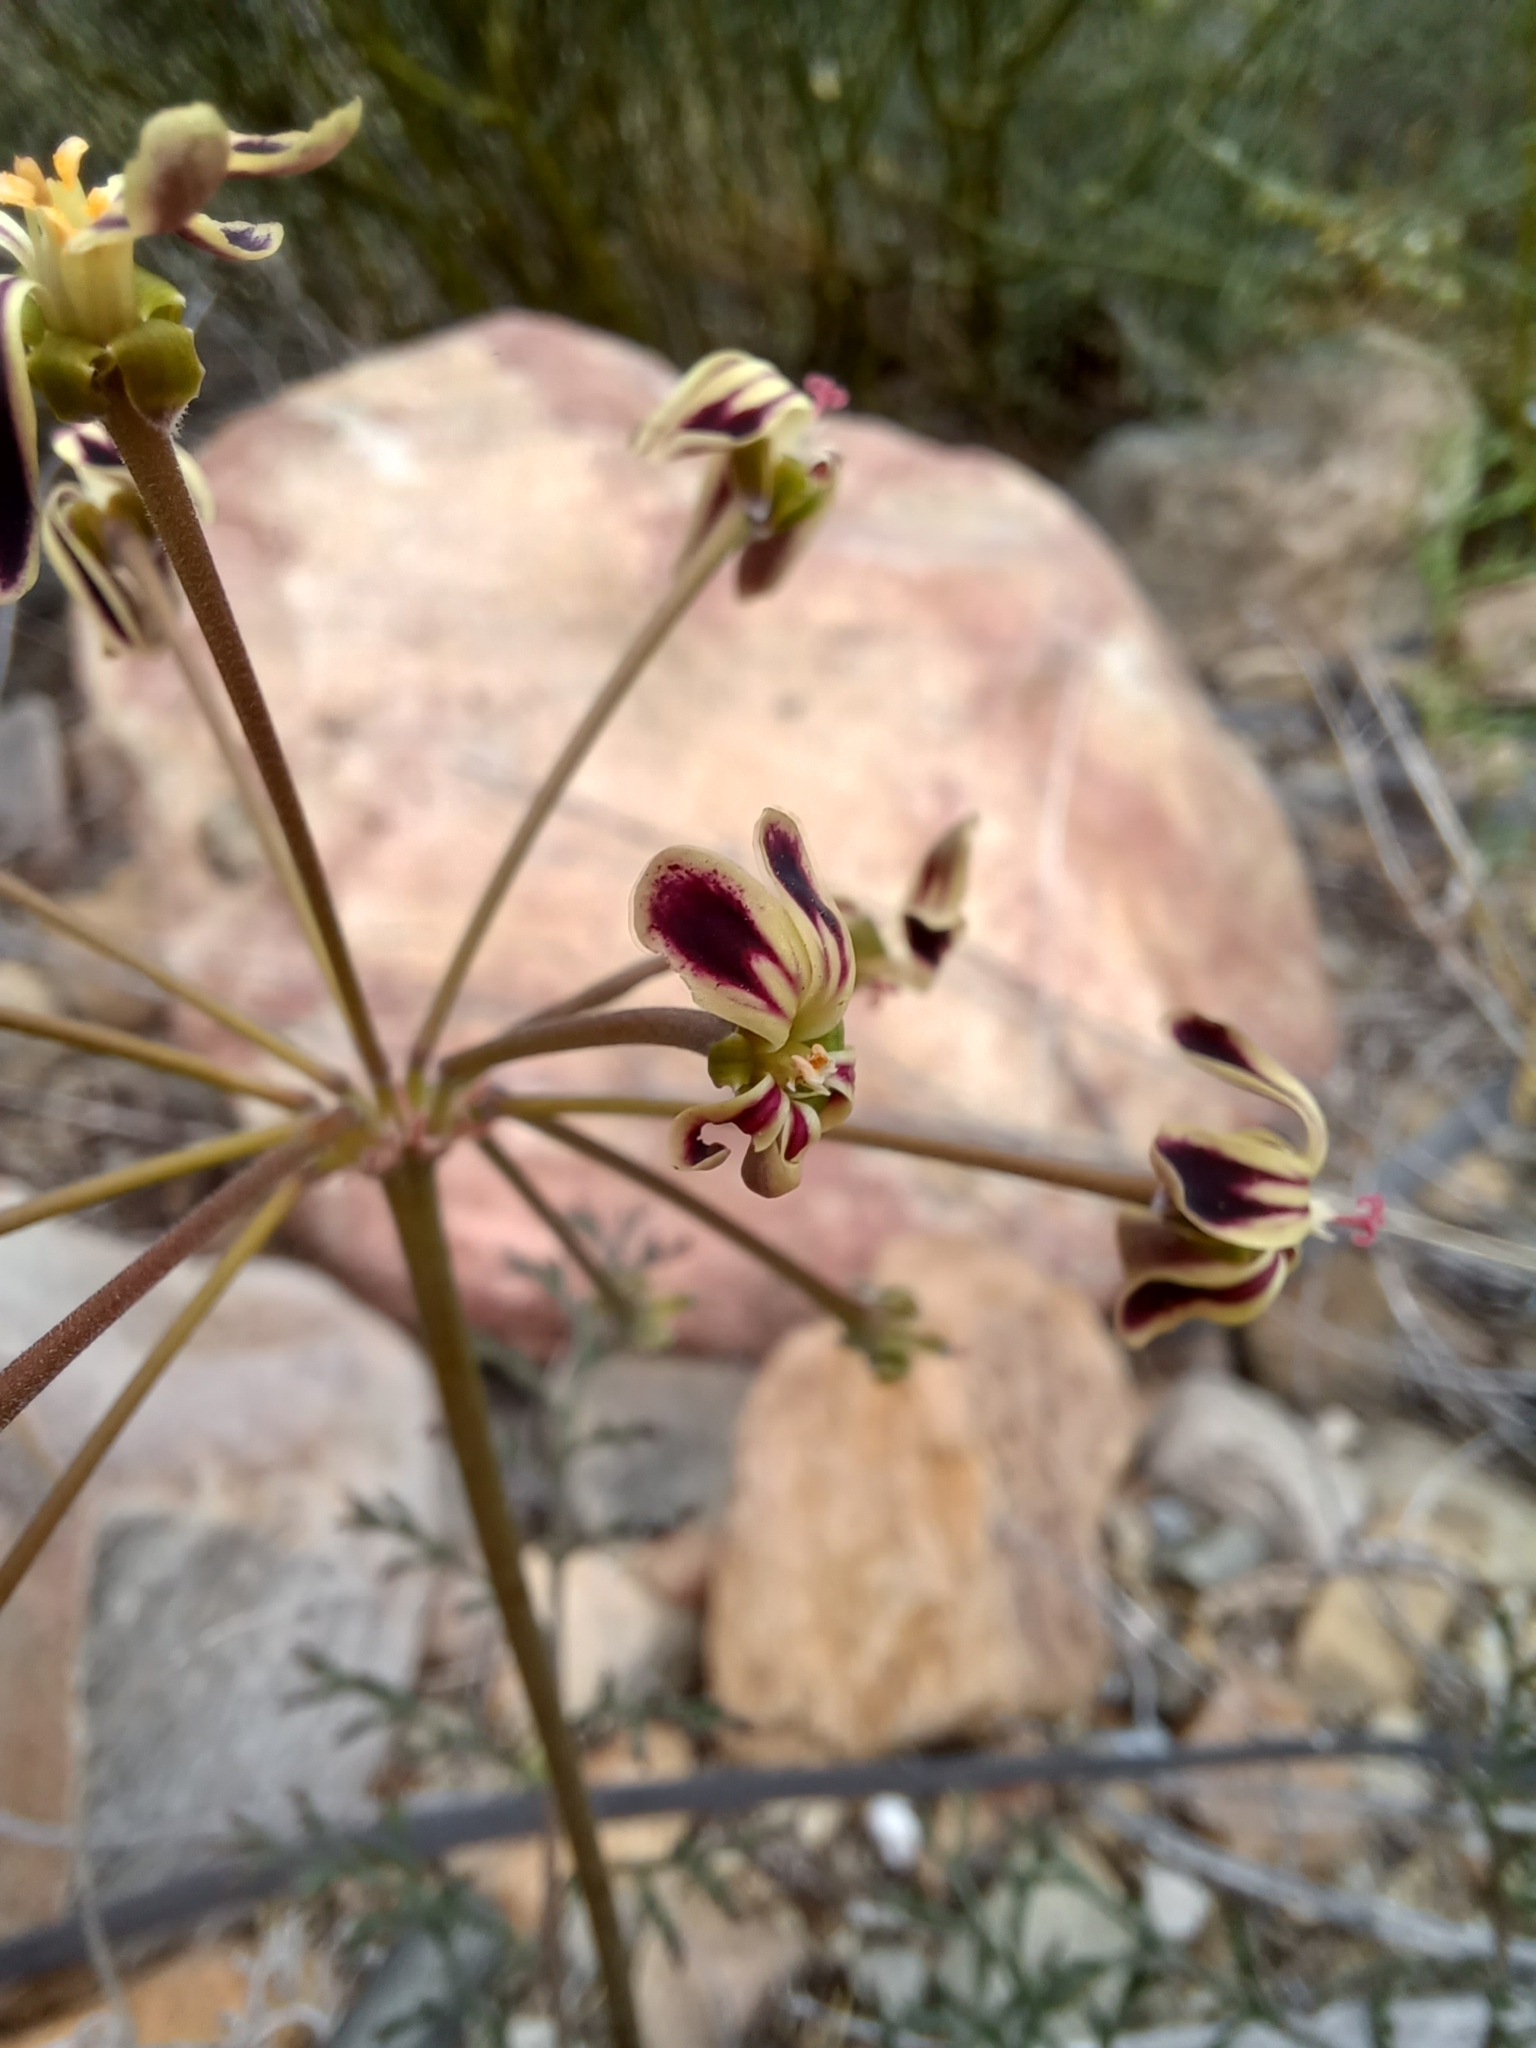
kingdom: Plantae
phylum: Tracheophyta
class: Magnoliopsida
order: Geraniales
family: Geraniaceae
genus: Pelargonium
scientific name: Pelargonium anethifolium
